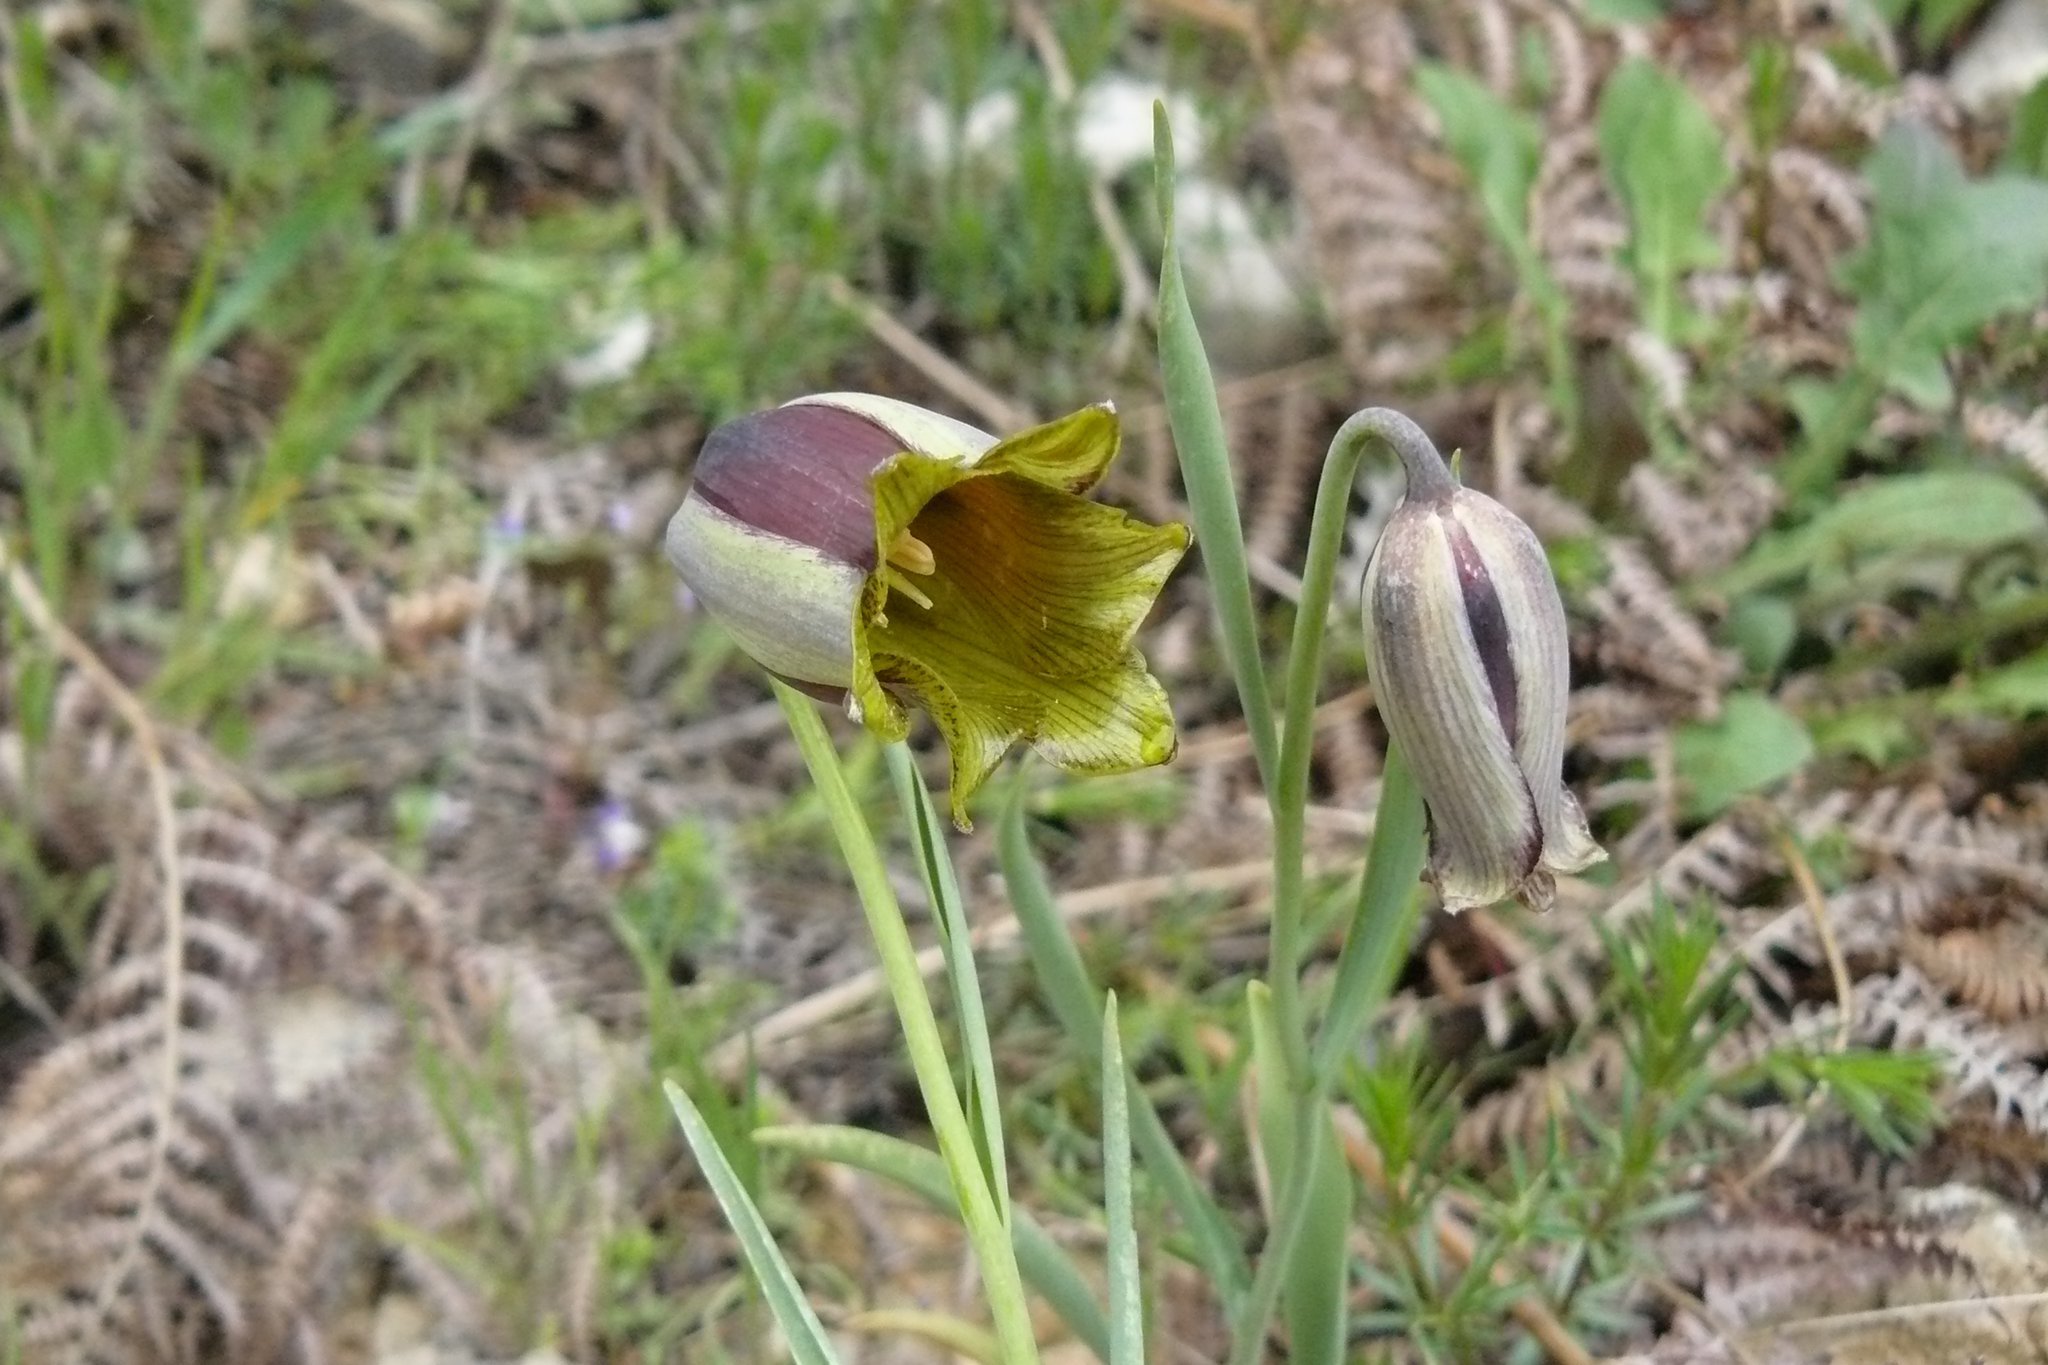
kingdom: Plantae
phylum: Tracheophyta
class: Liliopsida
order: Liliales
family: Liliaceae
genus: Fritillaria
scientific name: Fritillaria acmopetala
